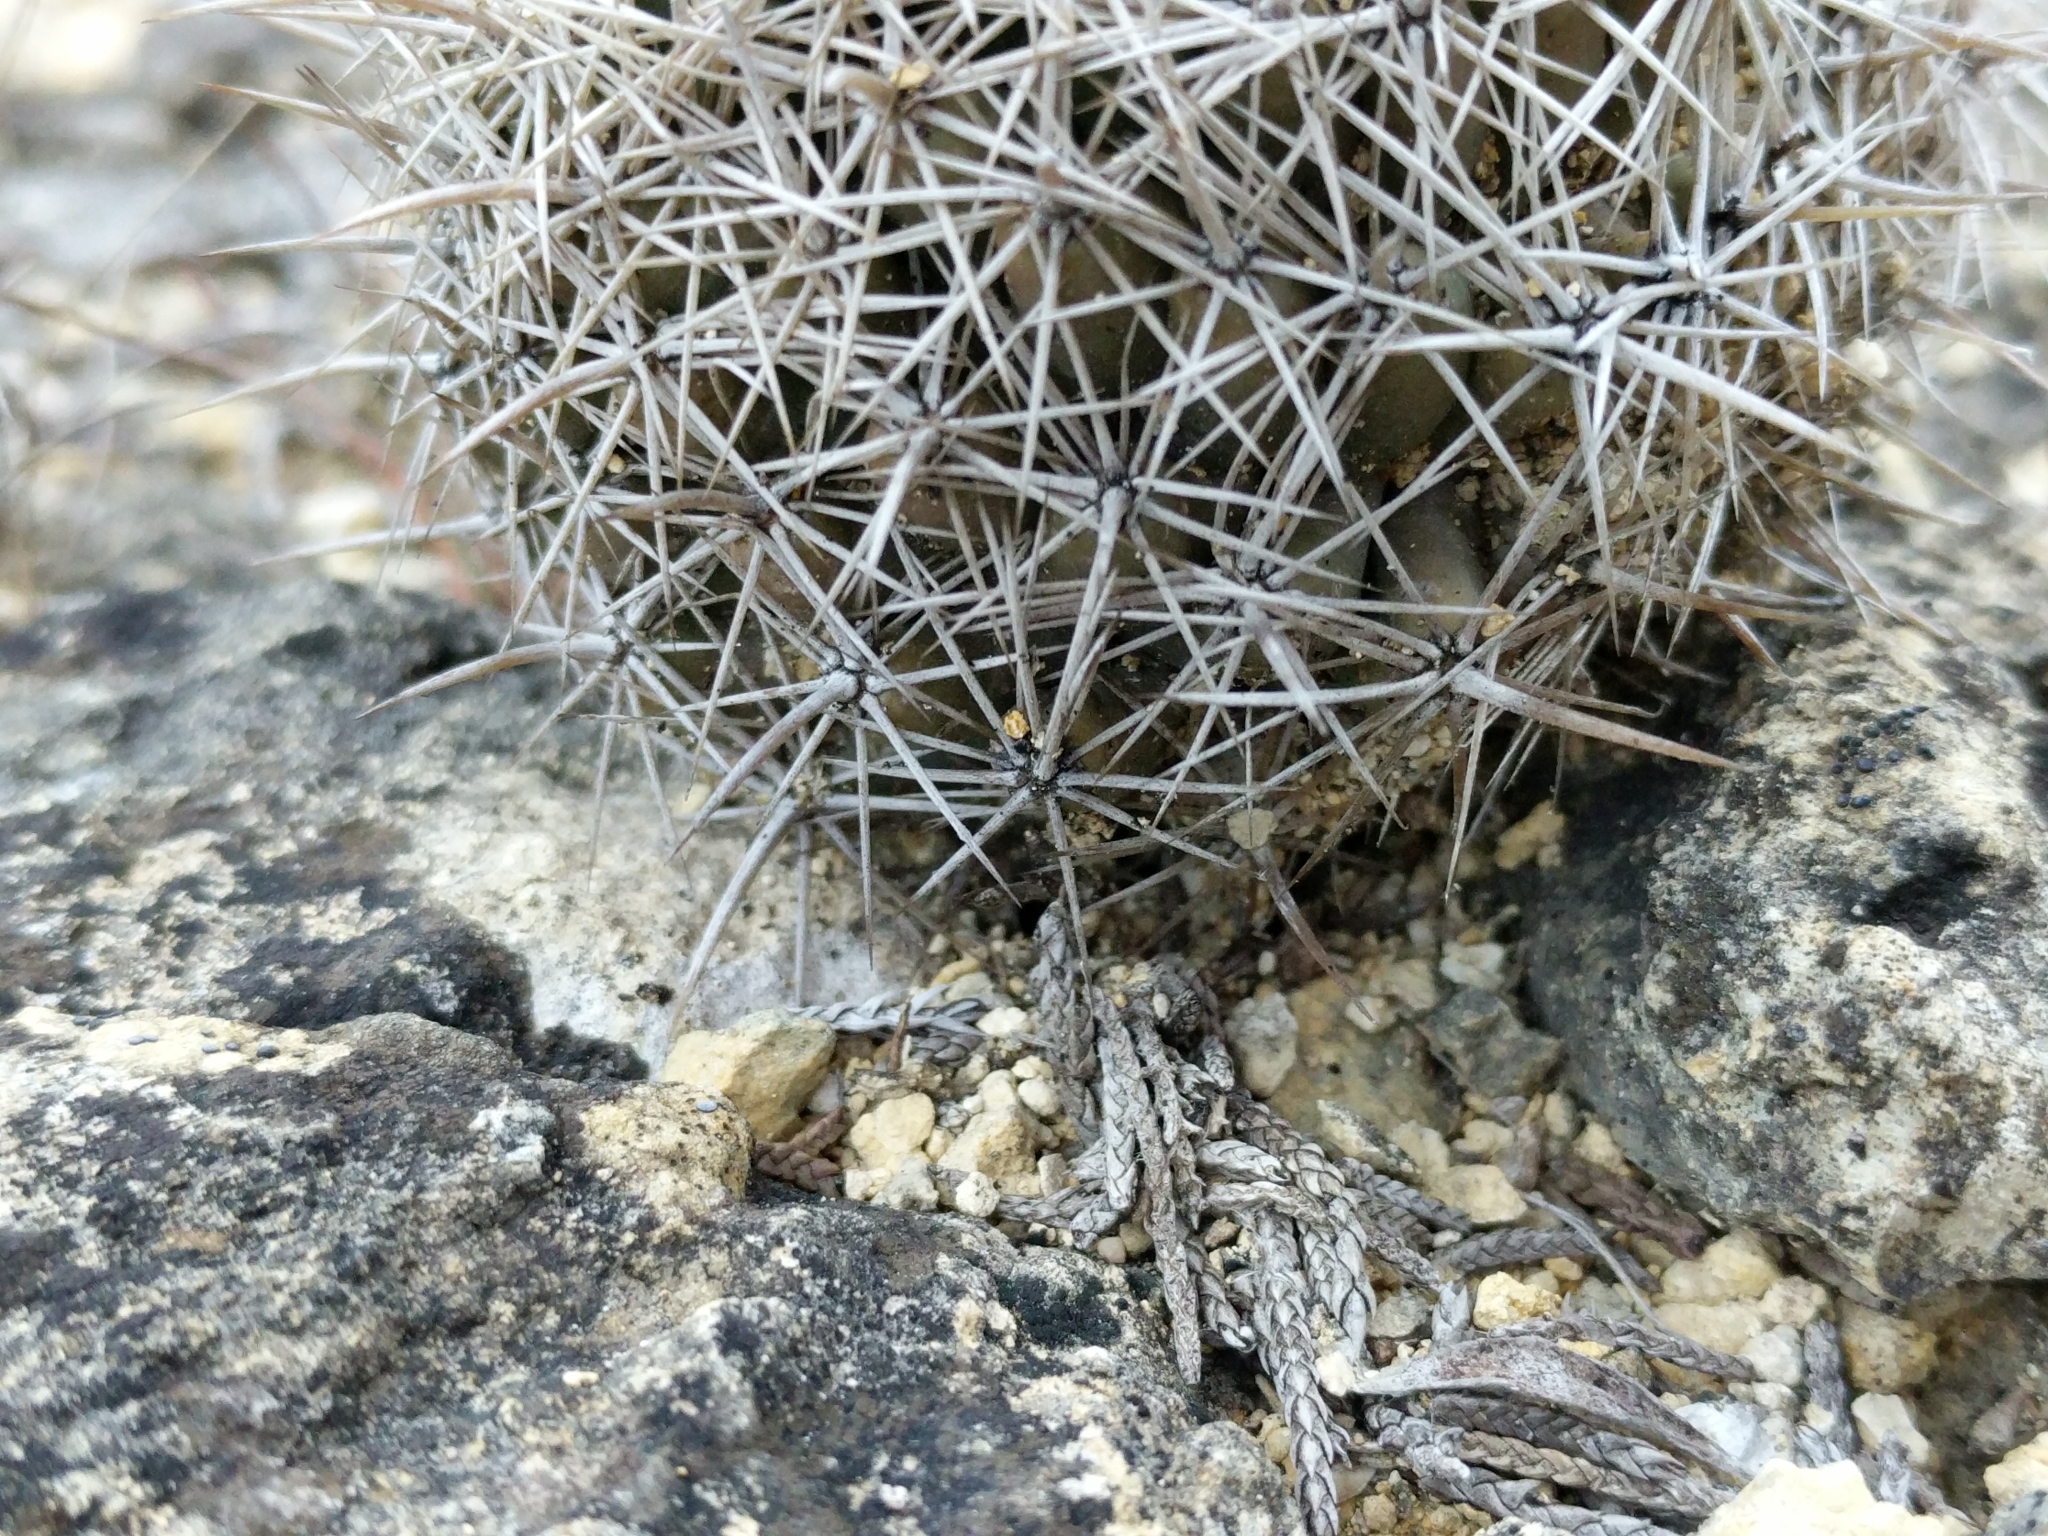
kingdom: Plantae
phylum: Tracheophyta
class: Magnoliopsida
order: Caryophyllales
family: Cactaceae
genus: Coryphantha
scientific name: Coryphantha sulcata
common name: Finger cactus
